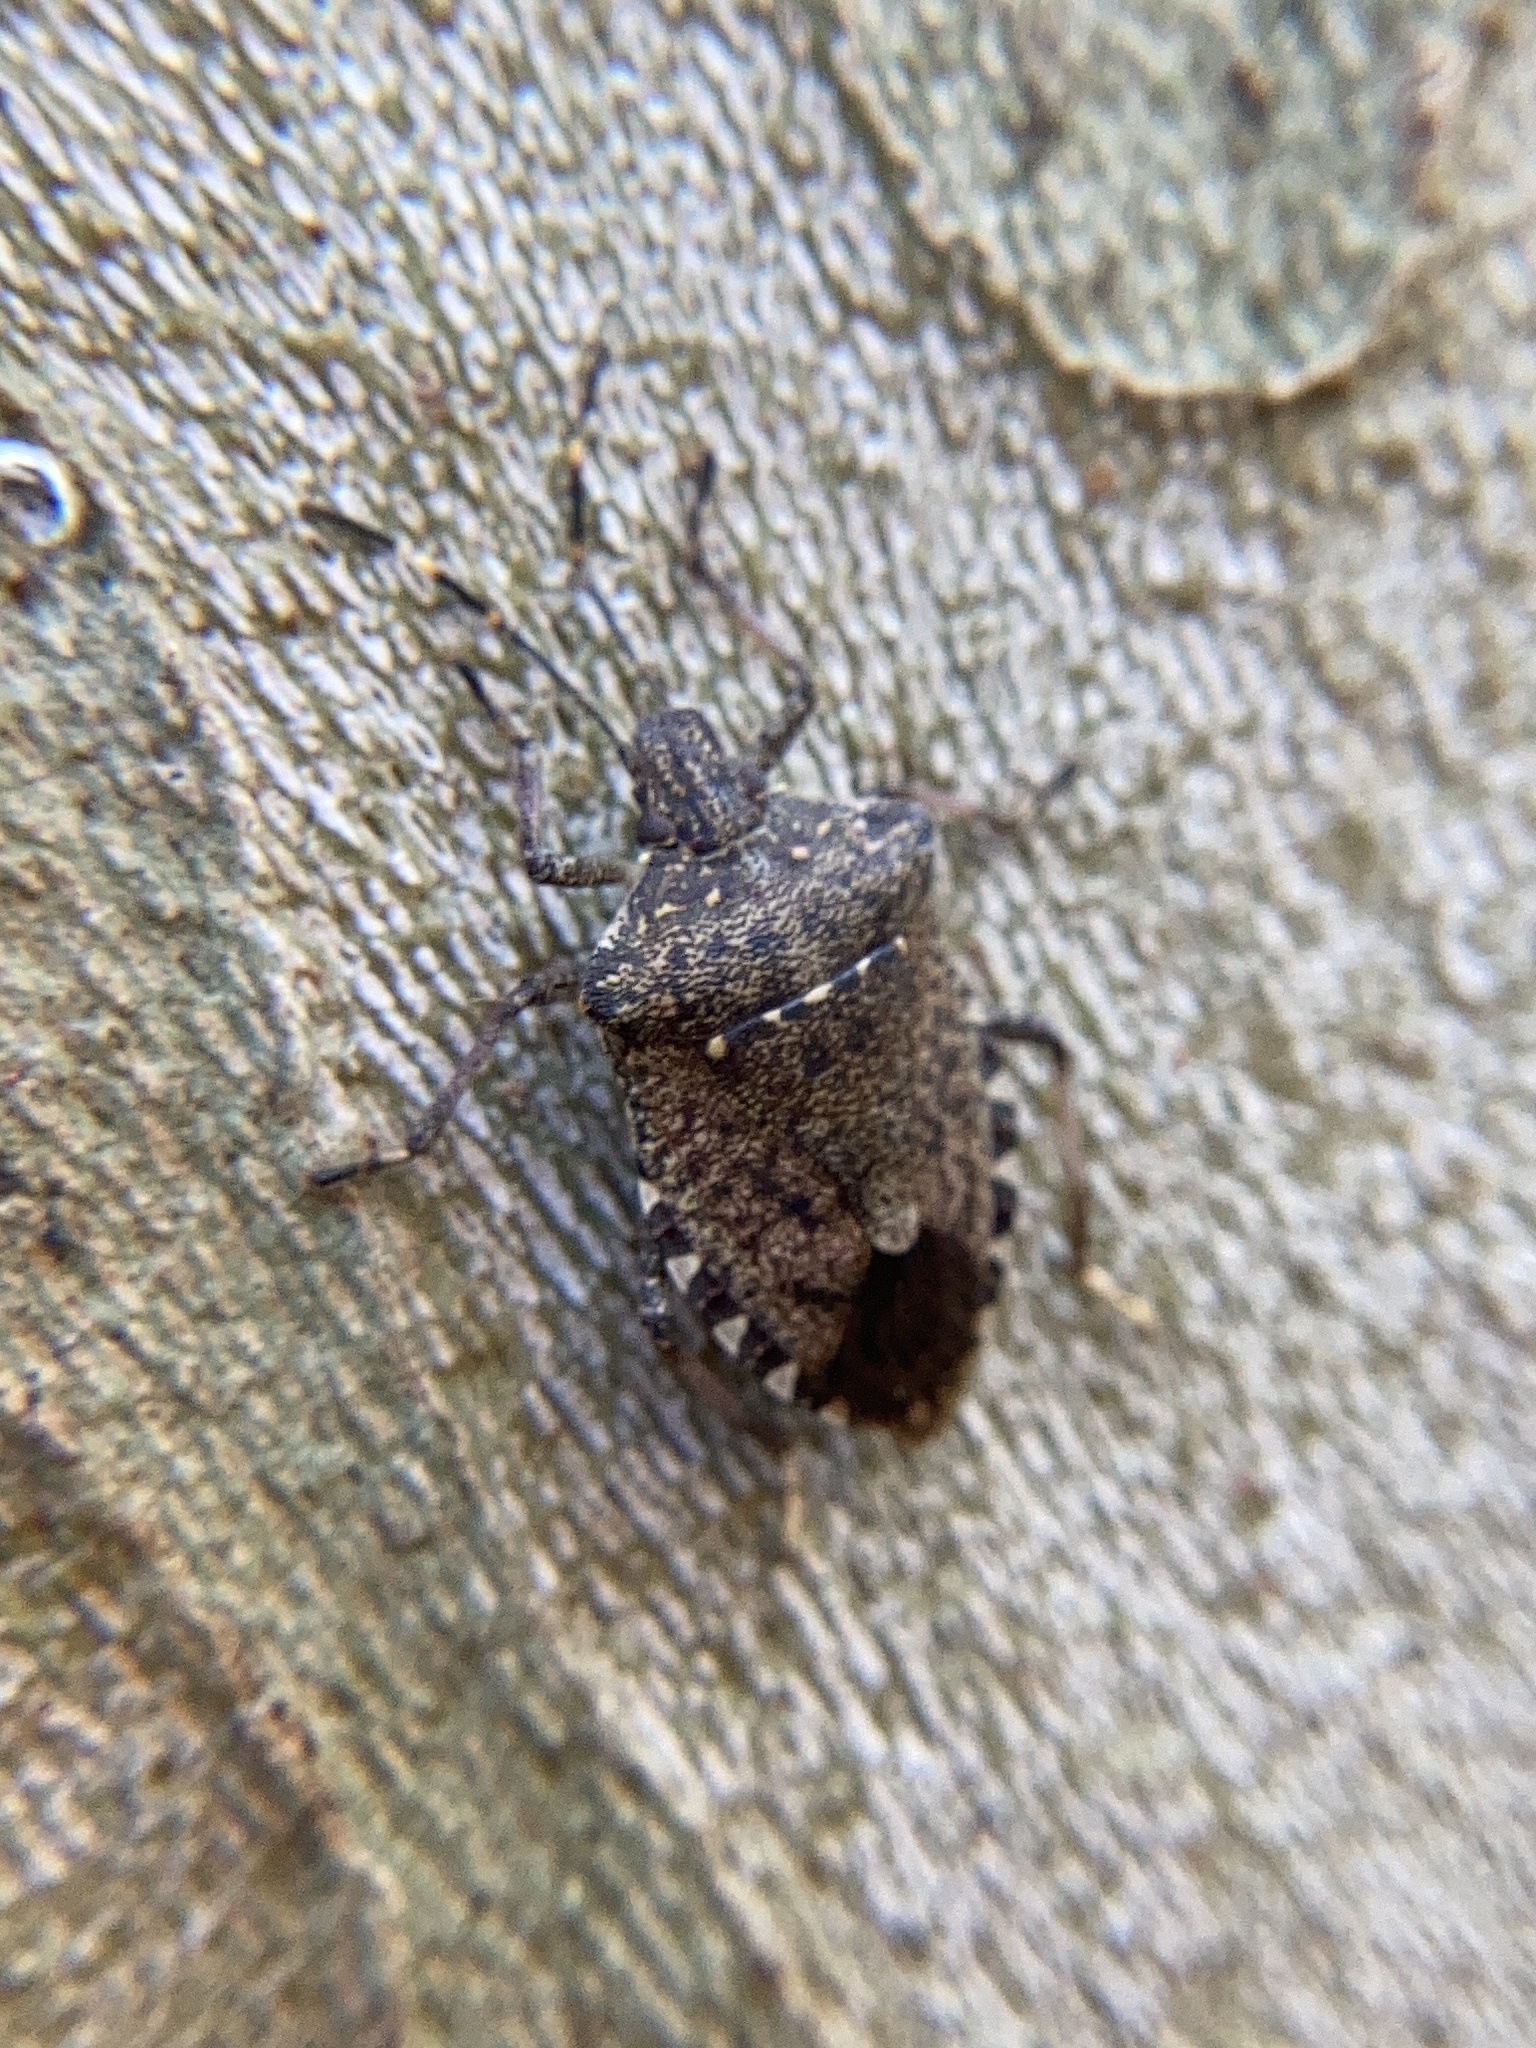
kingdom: Animalia
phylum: Arthropoda
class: Insecta
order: Hemiptera
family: Pentatomidae
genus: Halyomorpha
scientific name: Halyomorpha halys
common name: Brown marmorated stink bug
